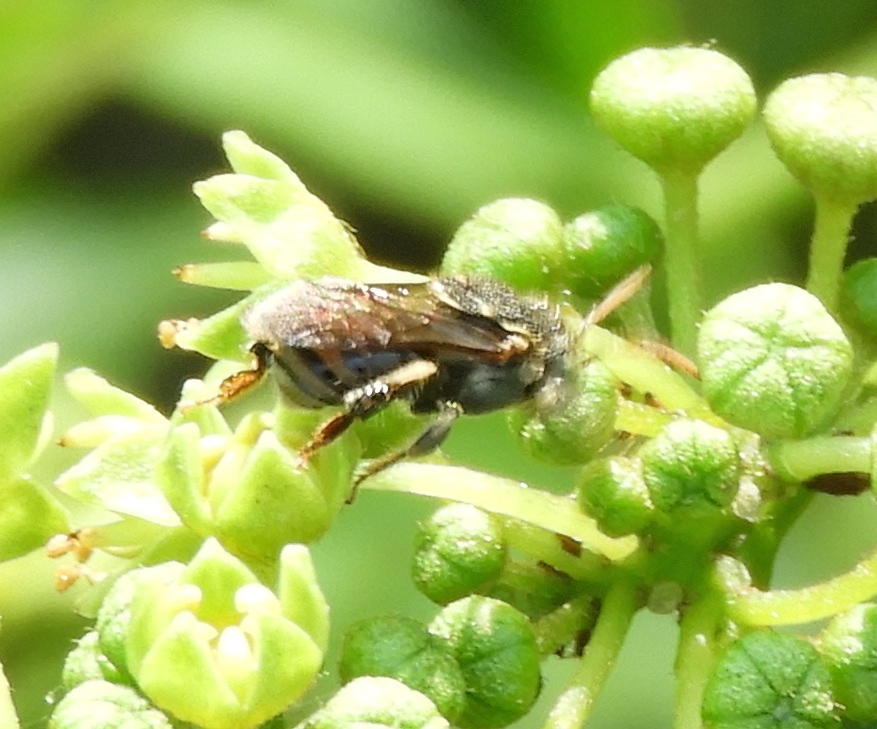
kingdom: Animalia
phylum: Arthropoda
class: Insecta
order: Hymenoptera
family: Apidae
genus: Nannotrigona
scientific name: Nannotrigona perilampoides
